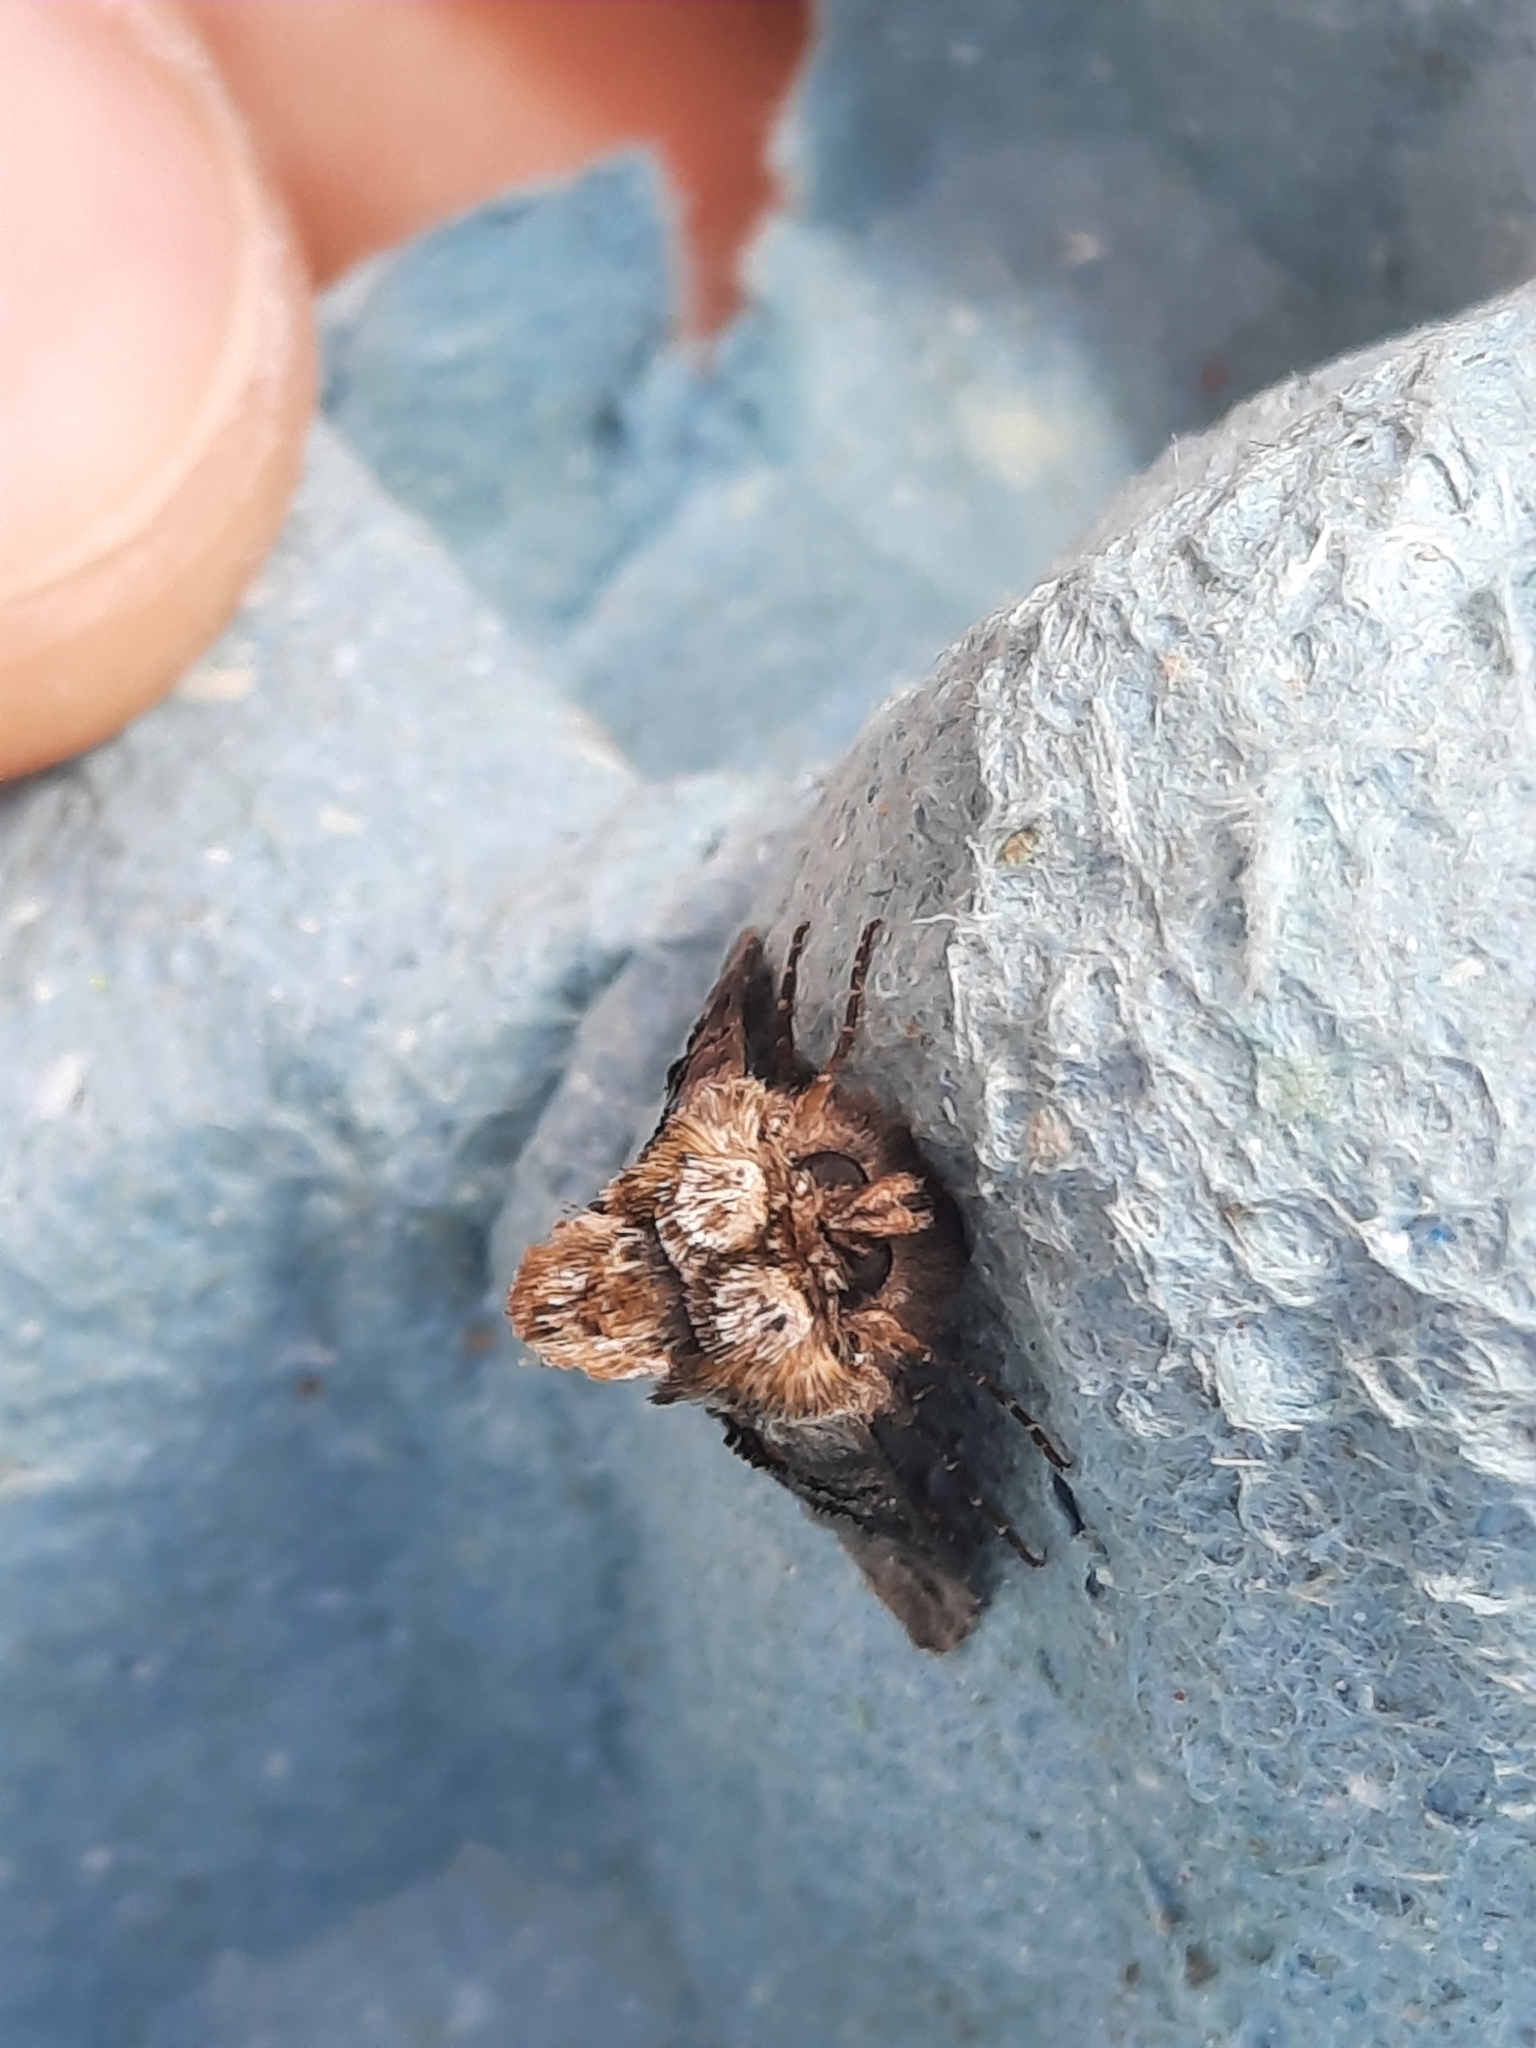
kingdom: Animalia
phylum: Arthropoda
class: Insecta
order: Lepidoptera
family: Noctuidae
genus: Abrostola
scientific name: Abrostola tripartita
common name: Spectacle
